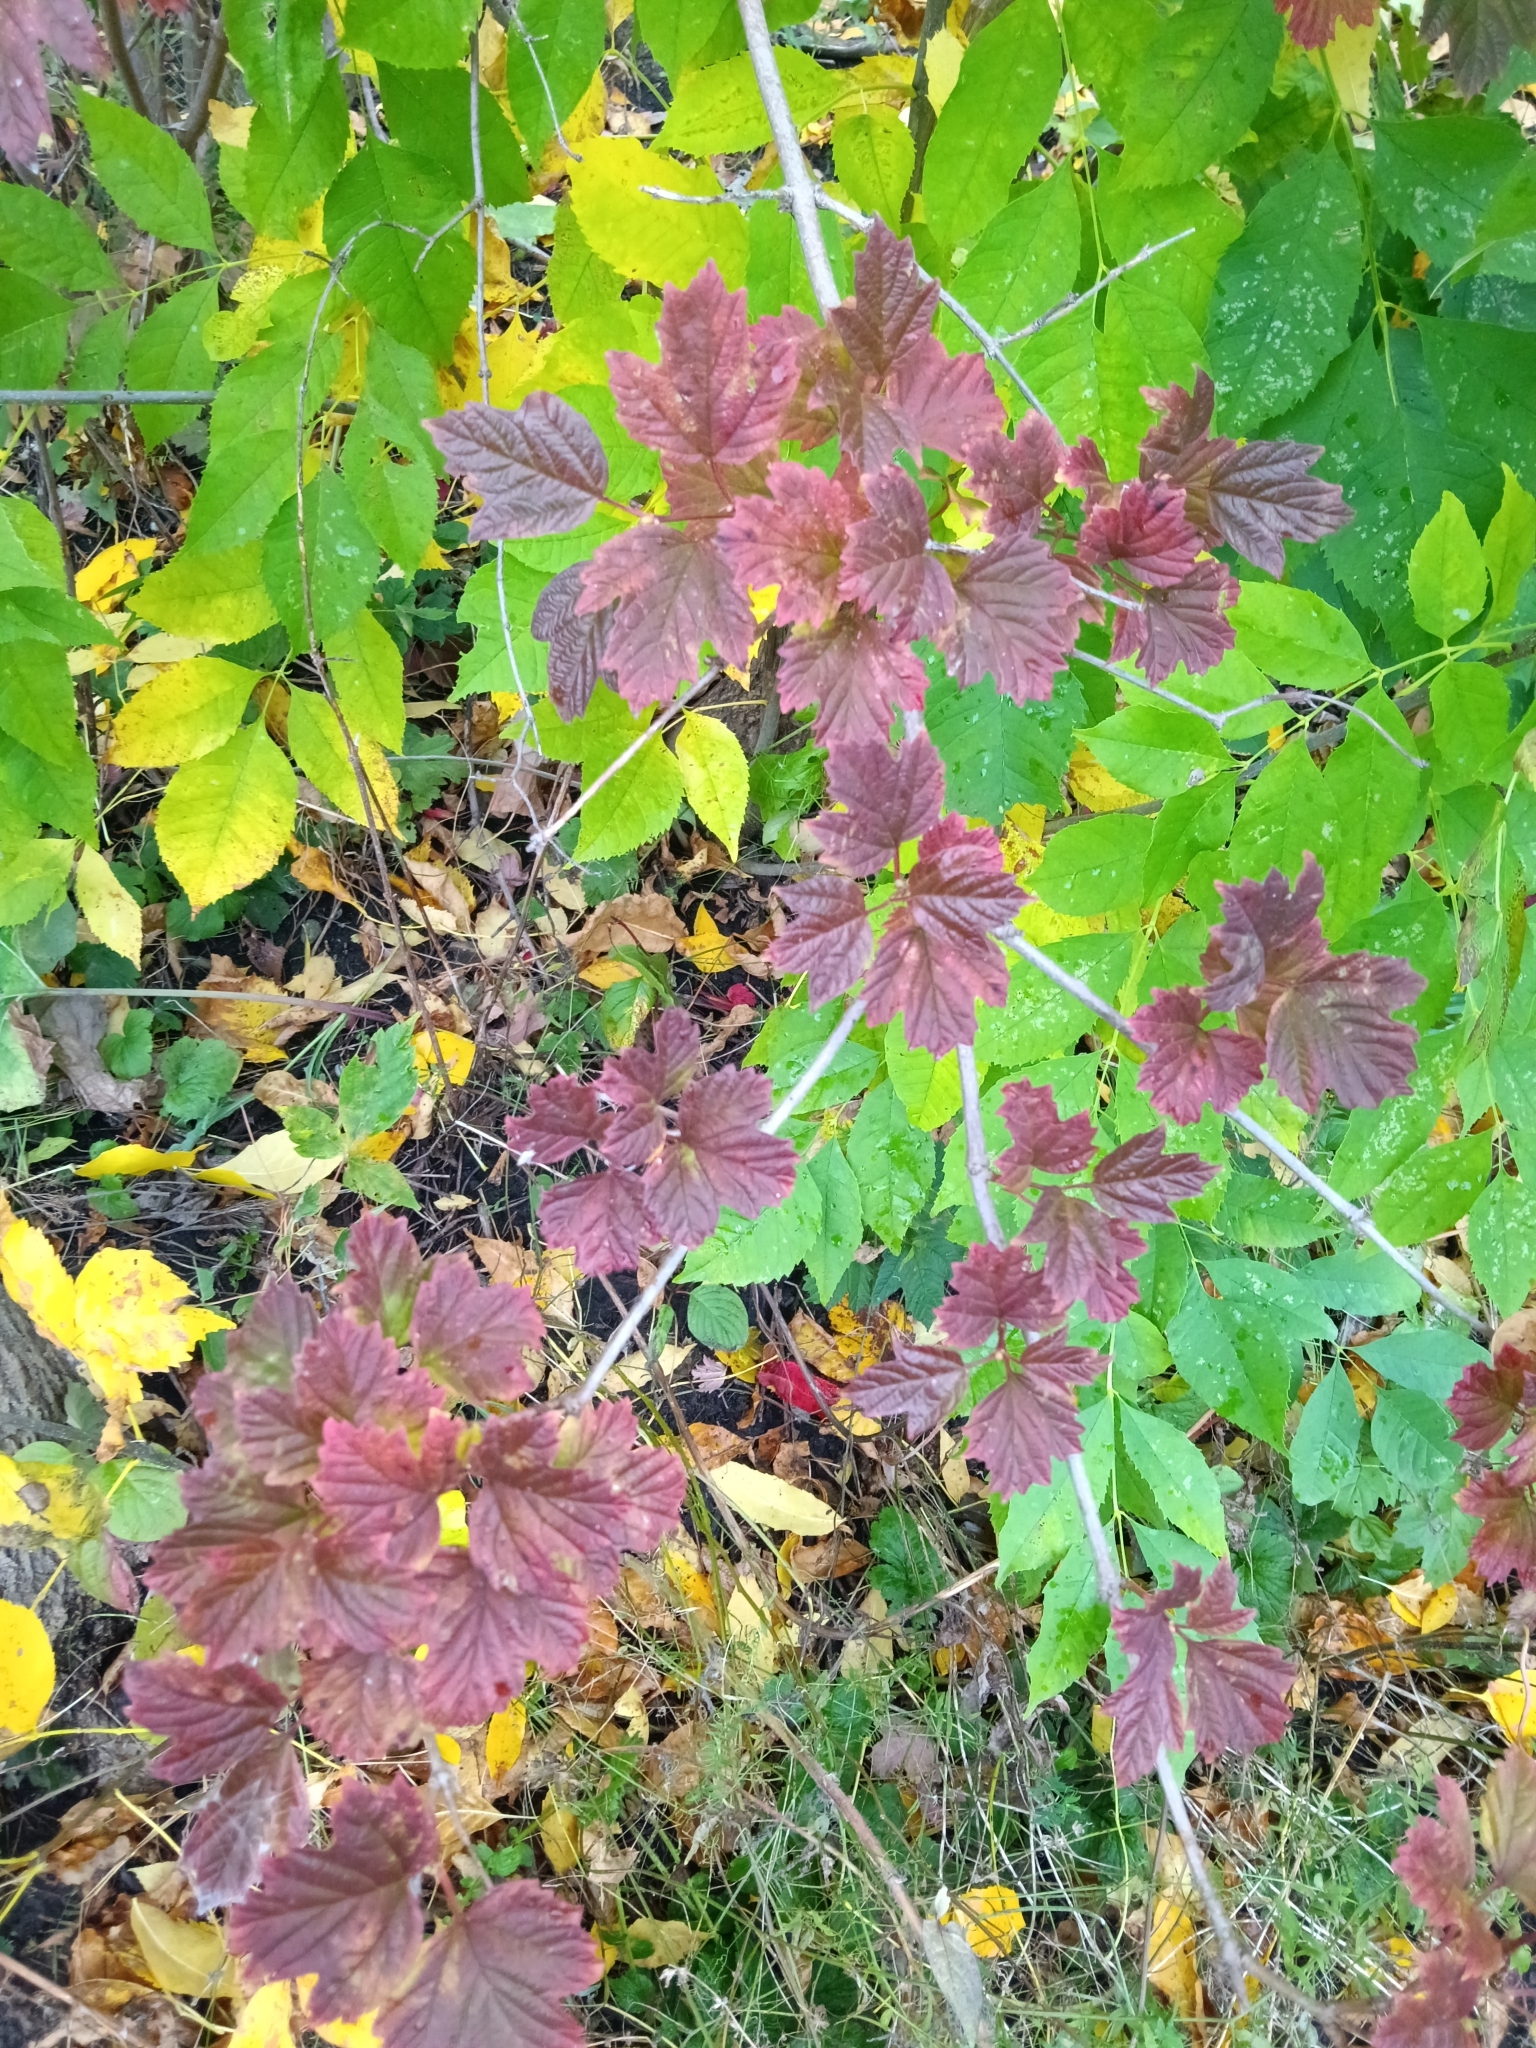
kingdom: Plantae
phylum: Tracheophyta
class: Magnoliopsida
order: Dipsacales
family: Viburnaceae
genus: Viburnum
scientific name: Viburnum opulus
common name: Guelder-rose
